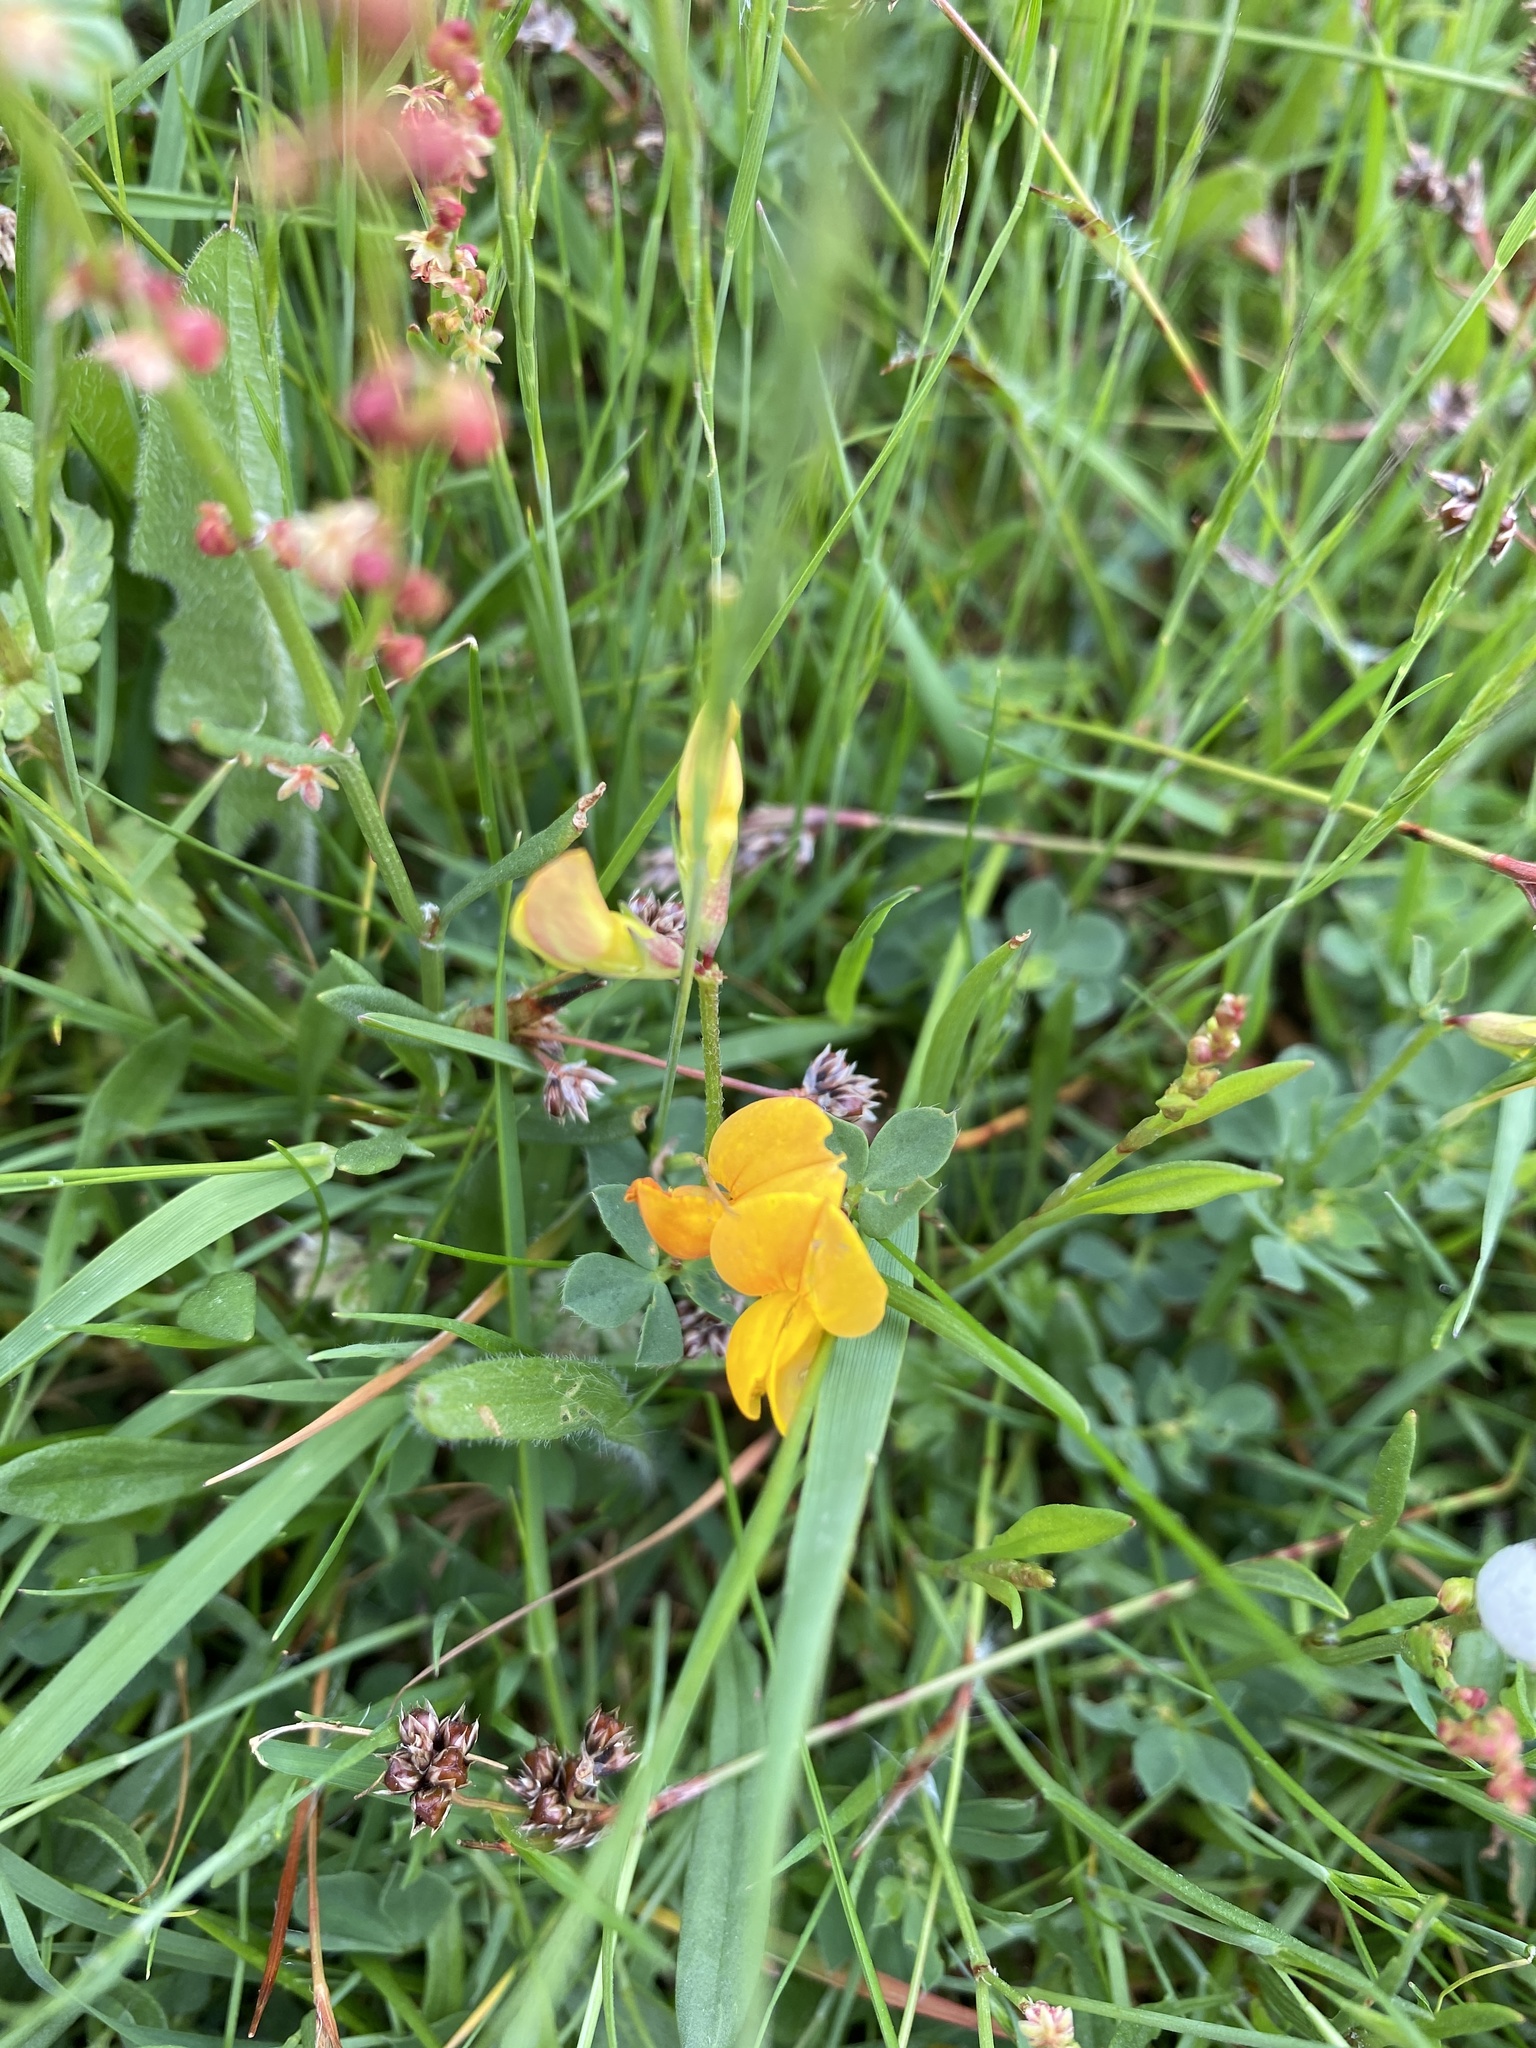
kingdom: Plantae
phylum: Tracheophyta
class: Magnoliopsida
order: Fabales
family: Fabaceae
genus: Lotus
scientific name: Lotus corniculatus
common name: Common bird's-foot-trefoil
